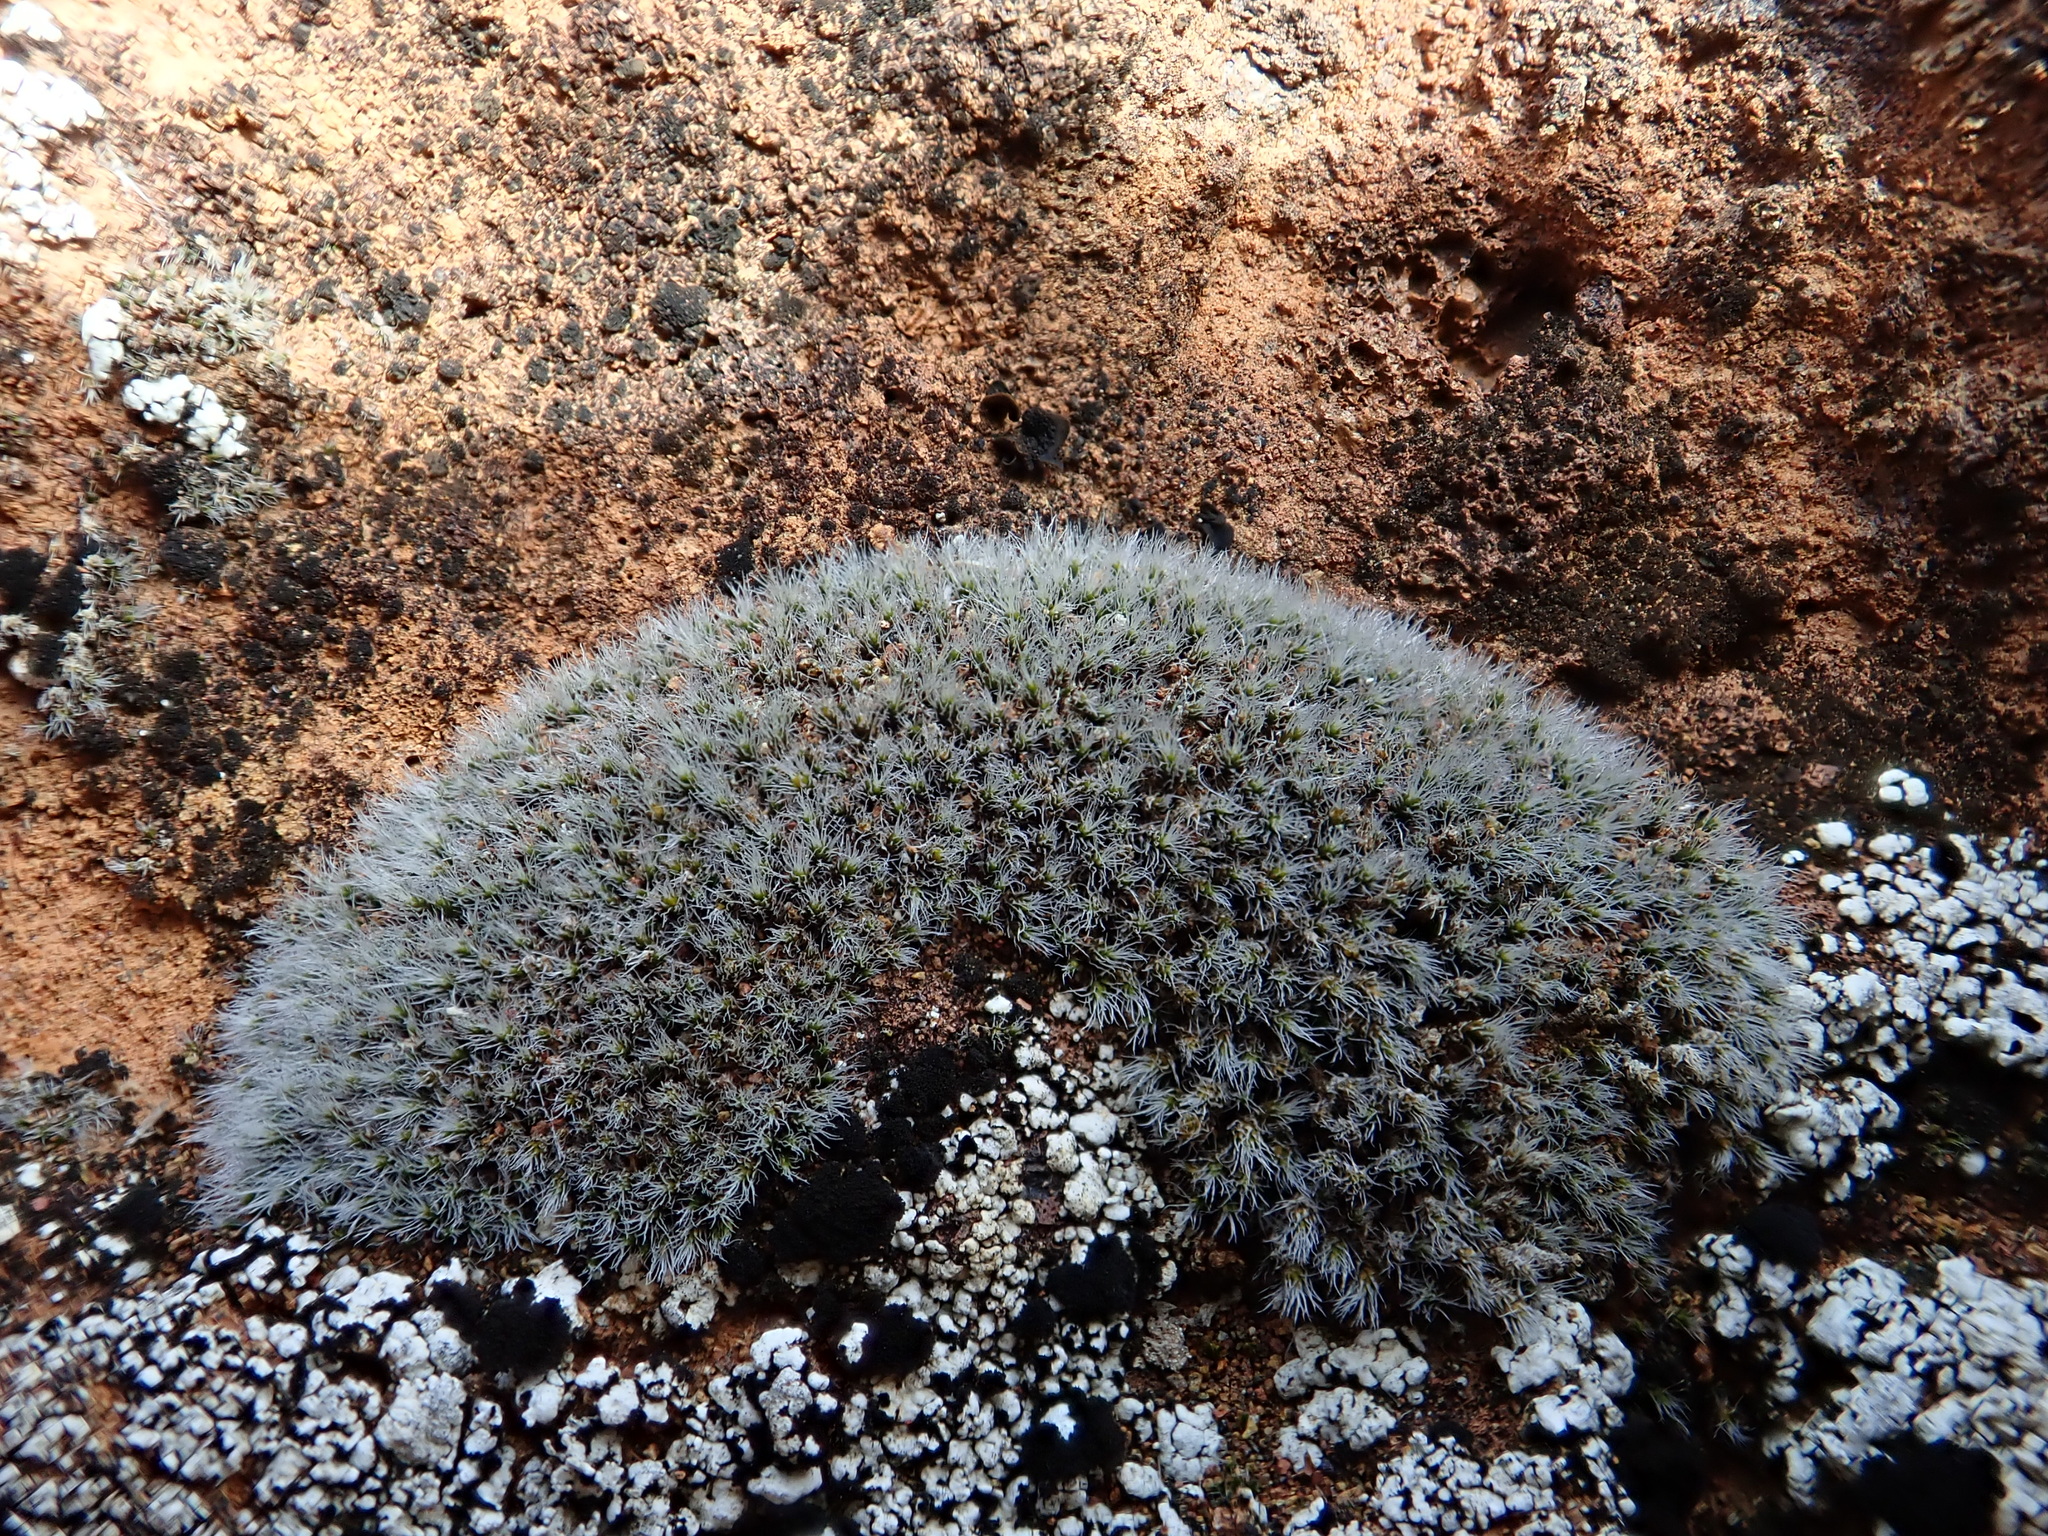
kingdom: Plantae
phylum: Bryophyta
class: Bryopsida
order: Grimmiales
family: Grimmiaceae
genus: Grimmia
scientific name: Grimmia laevigata
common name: Hoary grimmia
